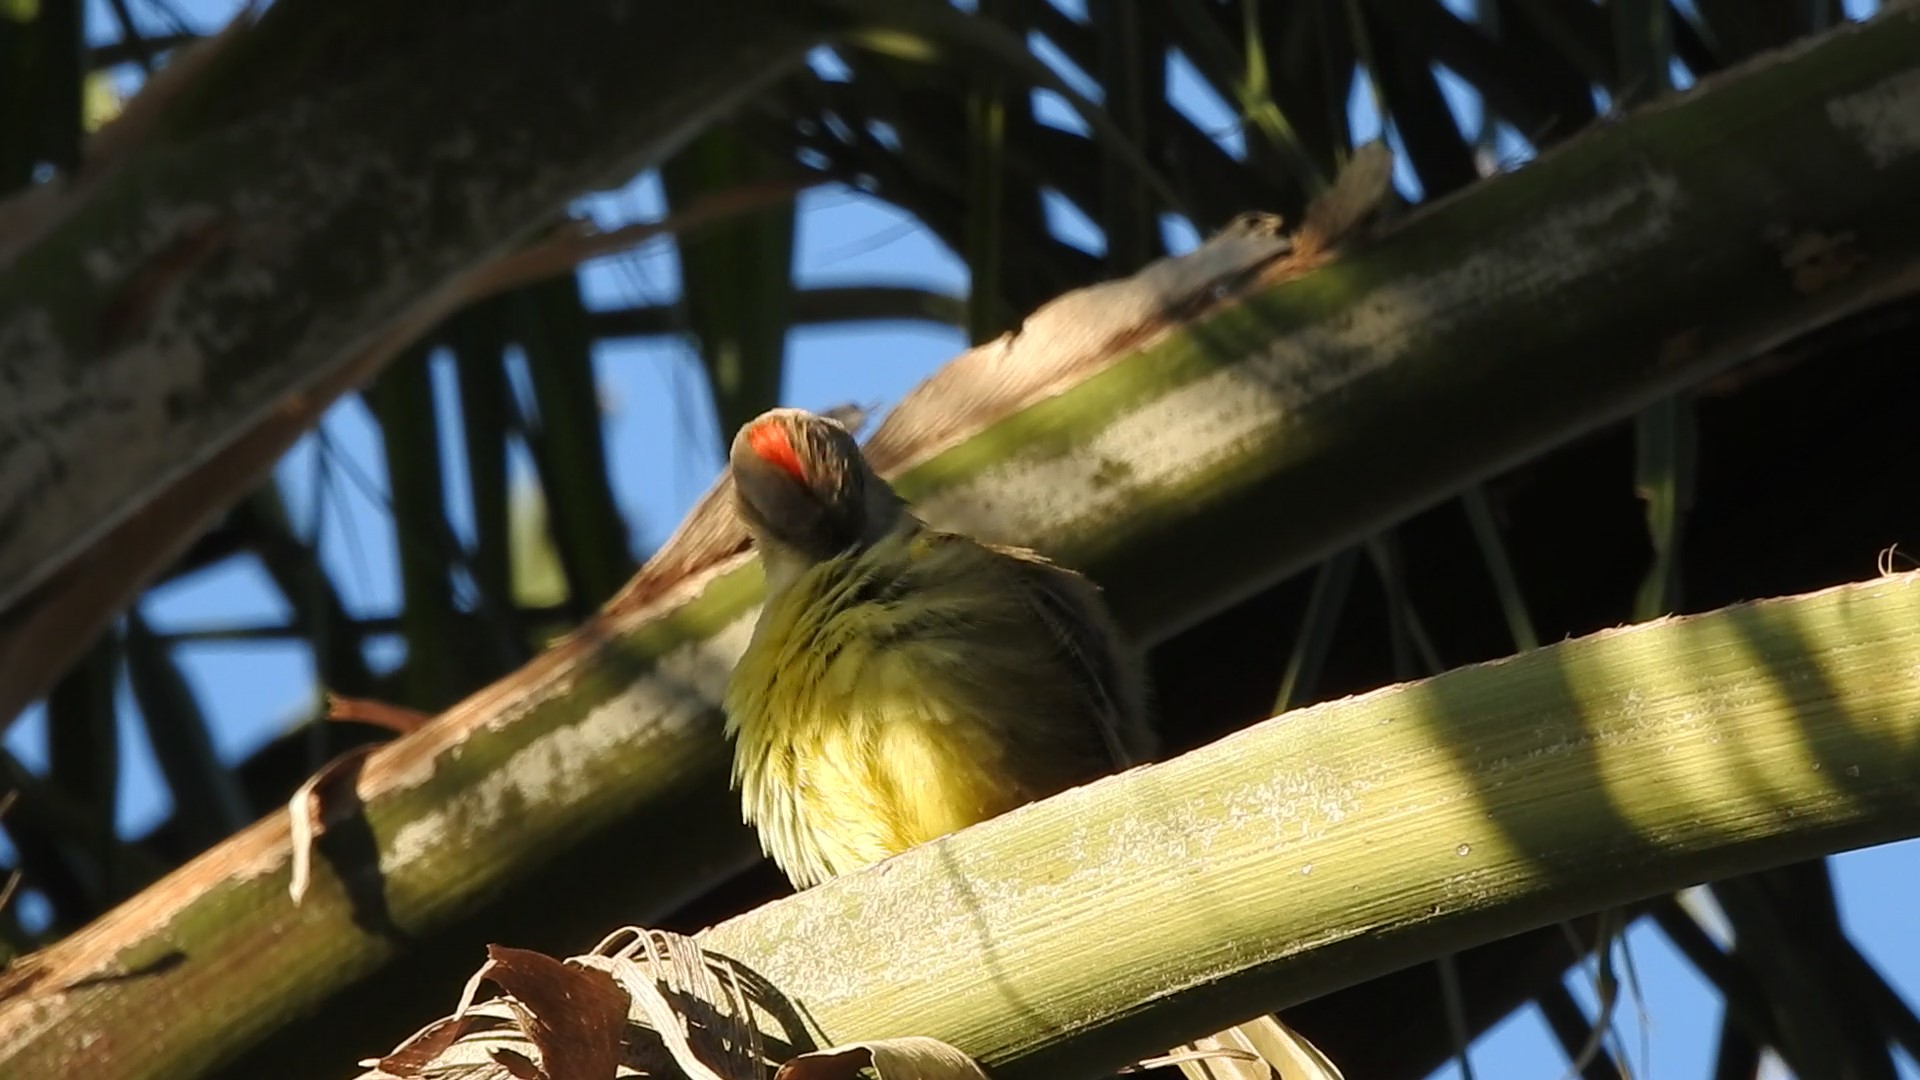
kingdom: Animalia
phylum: Chordata
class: Aves
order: Passeriformes
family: Tyrannidae
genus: Machetornis
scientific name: Machetornis rixosa
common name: Cattle tyrant
